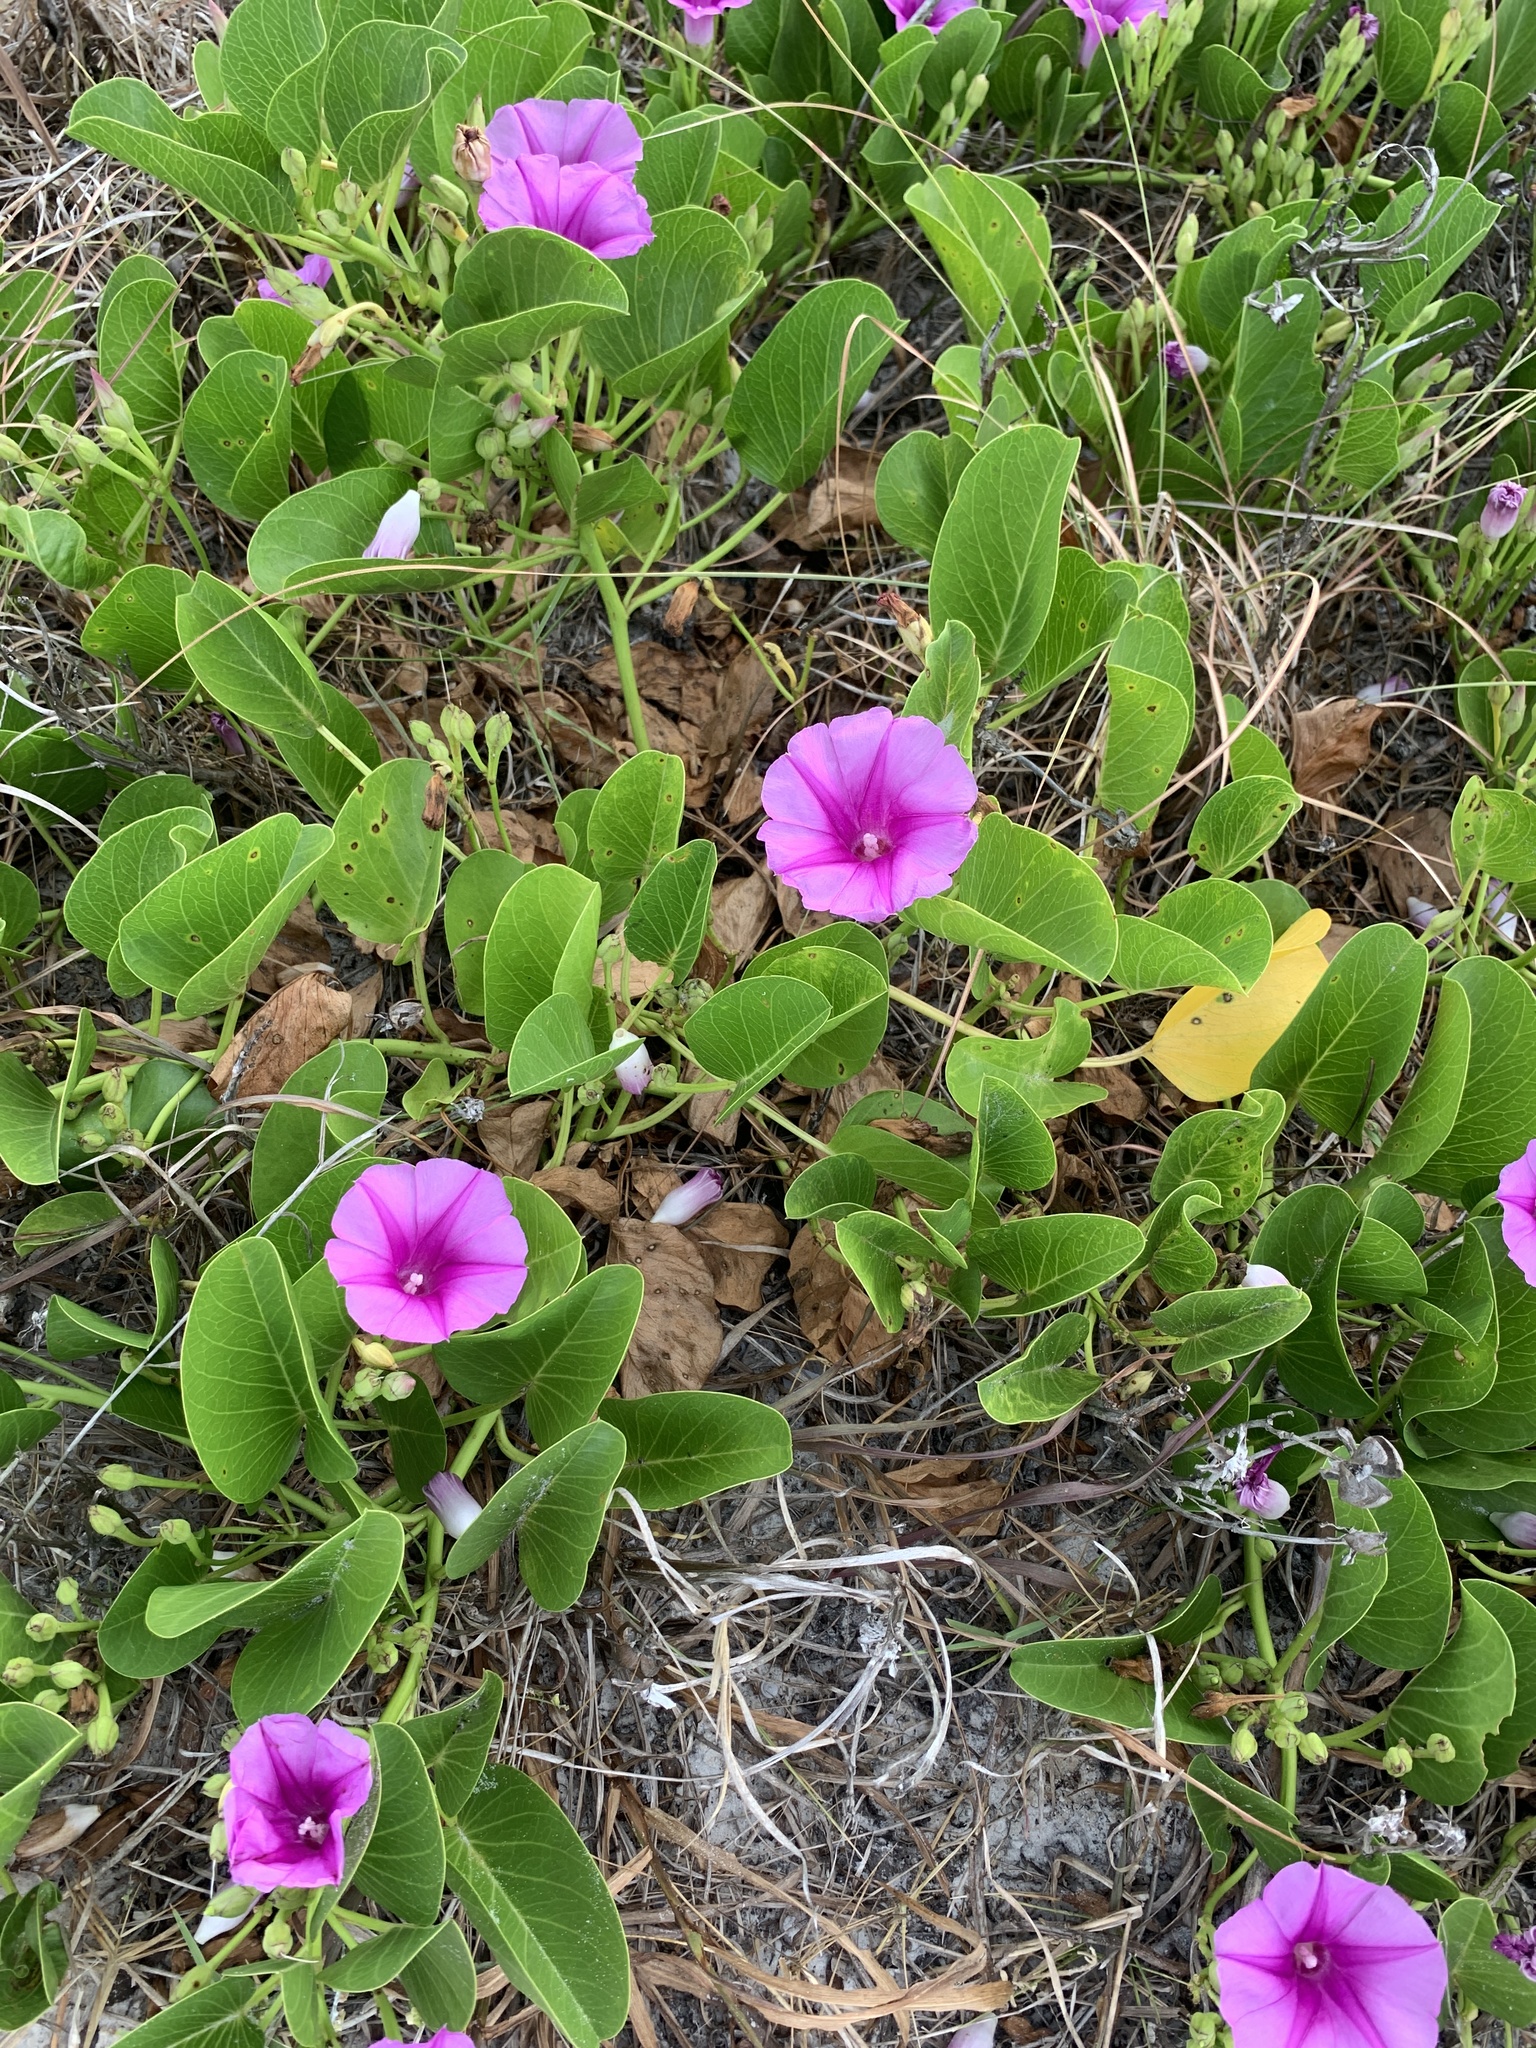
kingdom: Plantae
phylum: Tracheophyta
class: Magnoliopsida
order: Solanales
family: Convolvulaceae
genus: Ipomoea
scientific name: Ipomoea pes-caprae
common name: Beach morning glory
